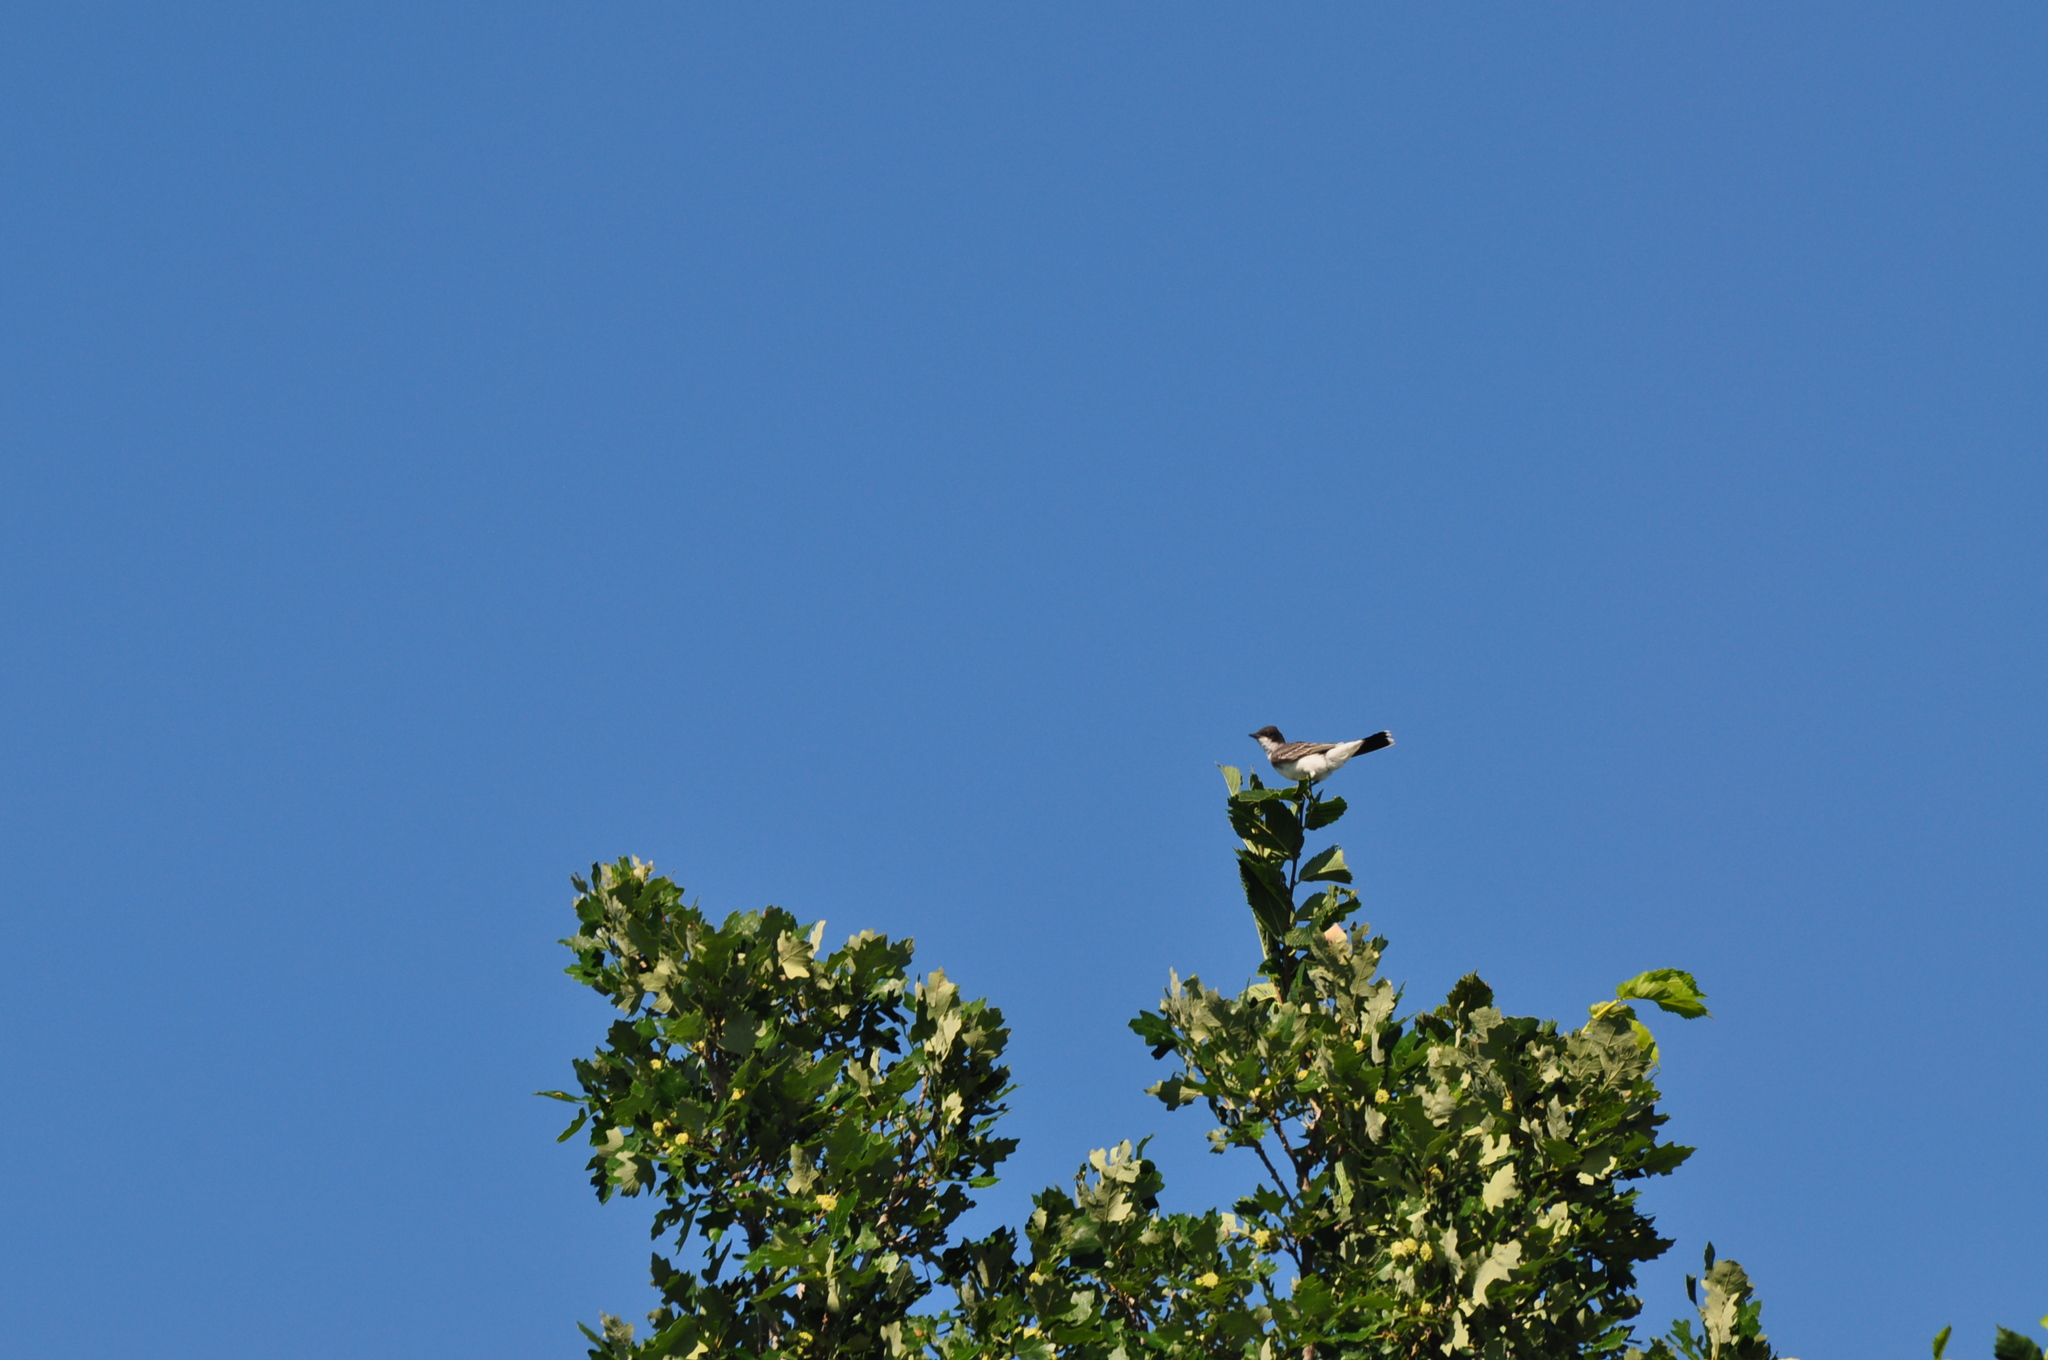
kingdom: Animalia
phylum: Chordata
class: Aves
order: Passeriformes
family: Tyrannidae
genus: Tyrannus
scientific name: Tyrannus tyrannus
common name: Eastern kingbird
